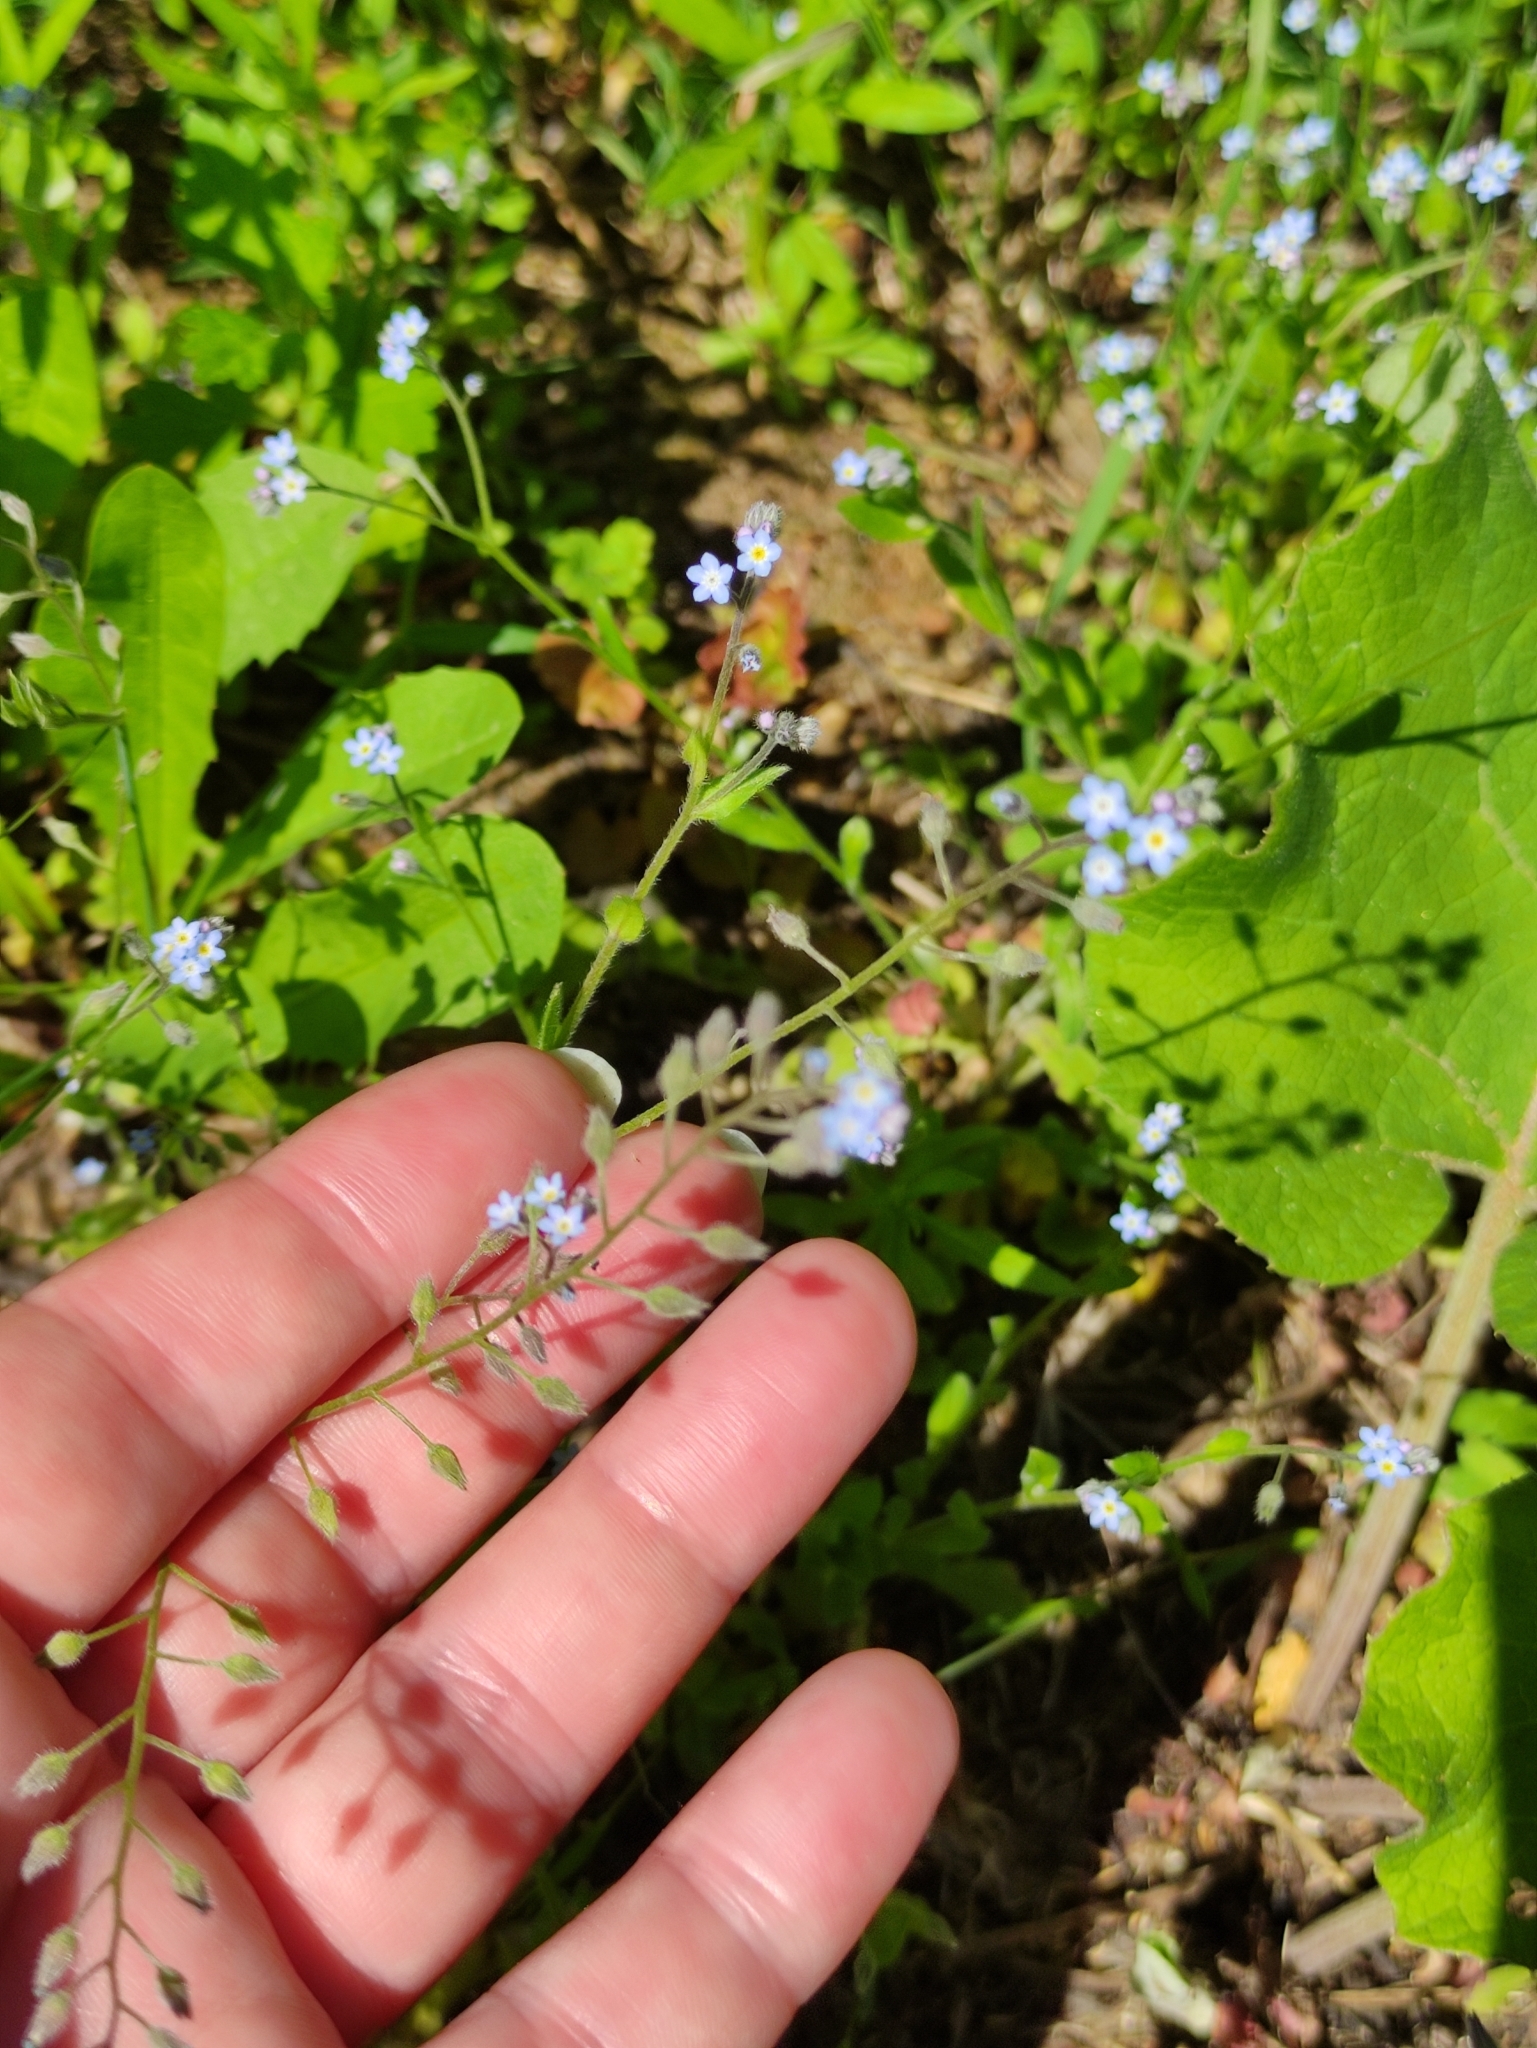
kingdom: Plantae
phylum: Tracheophyta
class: Magnoliopsida
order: Boraginales
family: Boraginaceae
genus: Myosotis
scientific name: Myosotis arvensis
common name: Field forget-me-not
